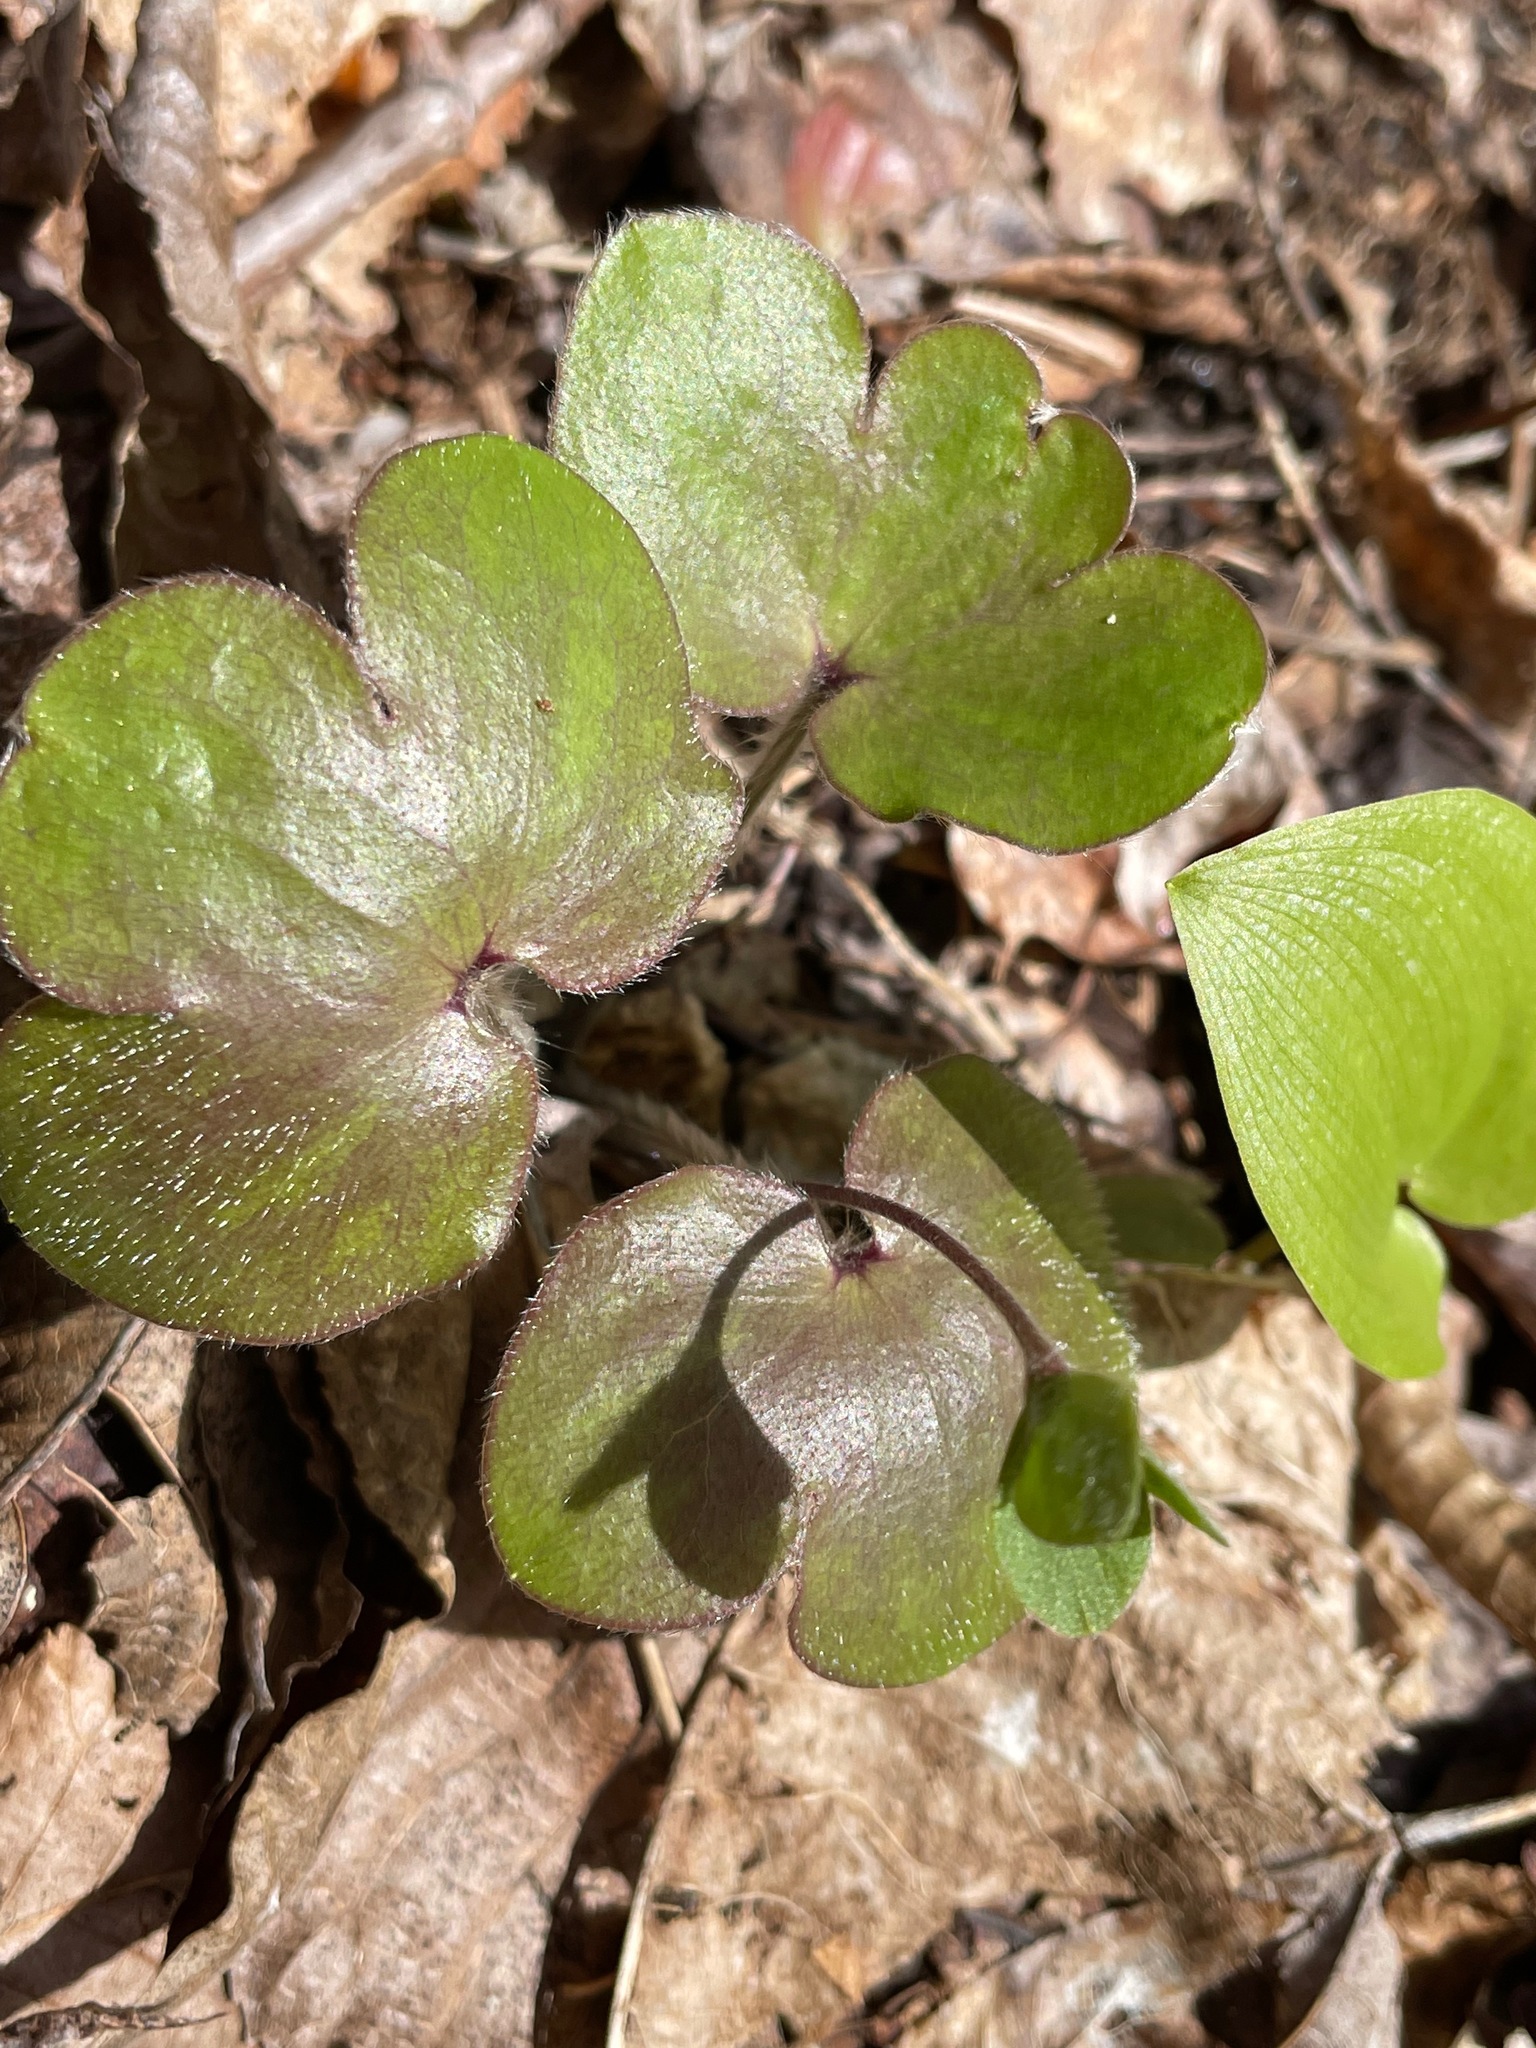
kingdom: Plantae
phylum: Tracheophyta
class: Magnoliopsida
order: Ranunculales
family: Ranunculaceae
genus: Hepatica
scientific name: Hepatica americana
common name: American hepatica
